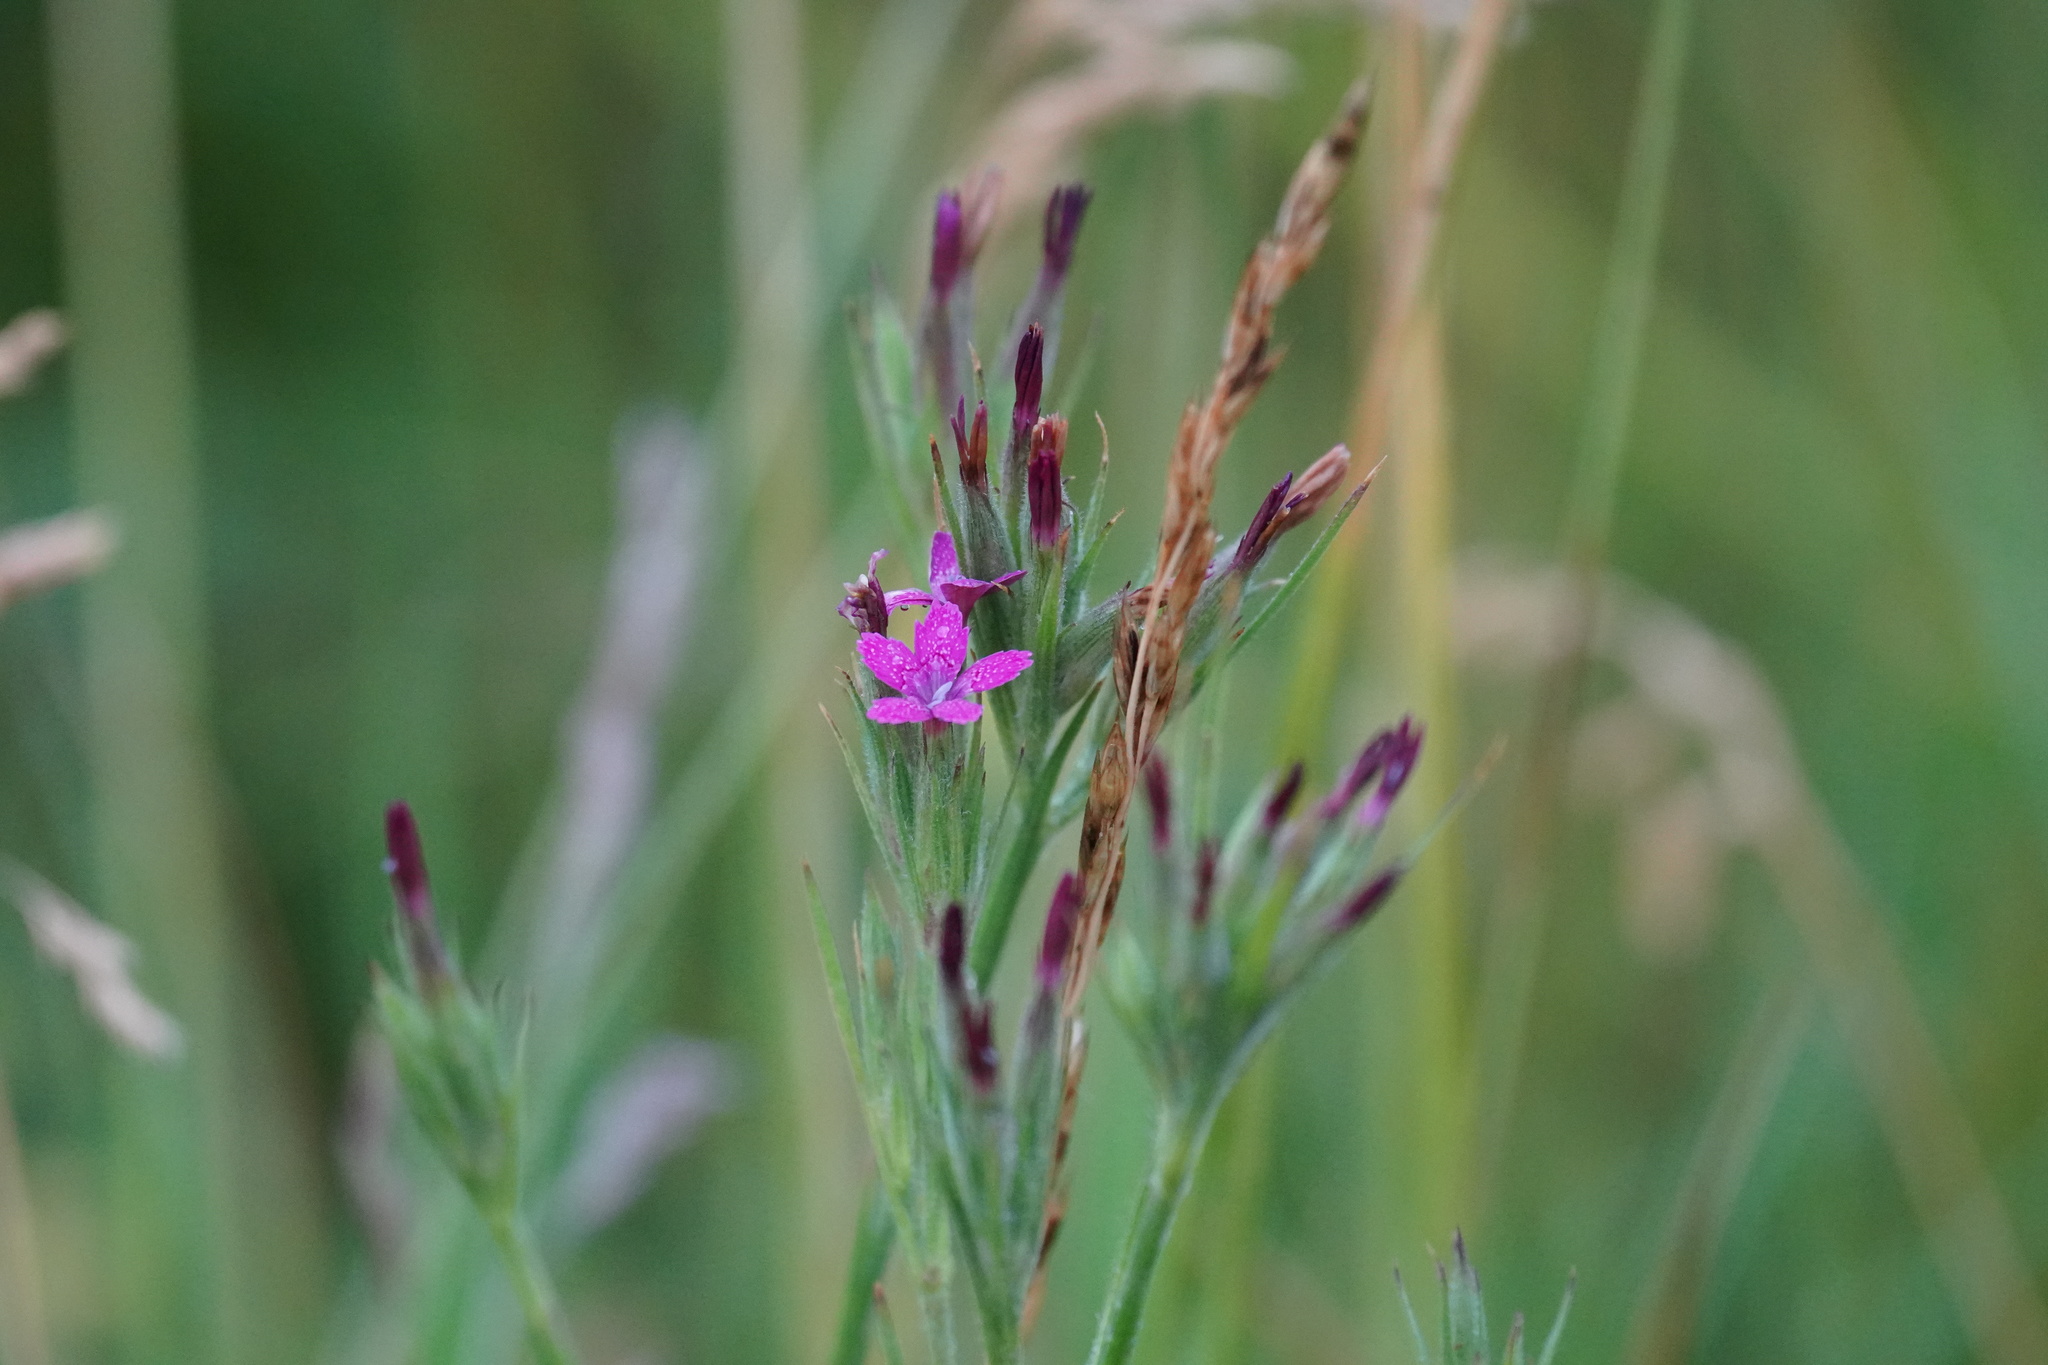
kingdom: Plantae
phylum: Tracheophyta
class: Magnoliopsida
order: Caryophyllales
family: Caryophyllaceae
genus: Dianthus
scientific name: Dianthus armeria
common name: Deptford pink
